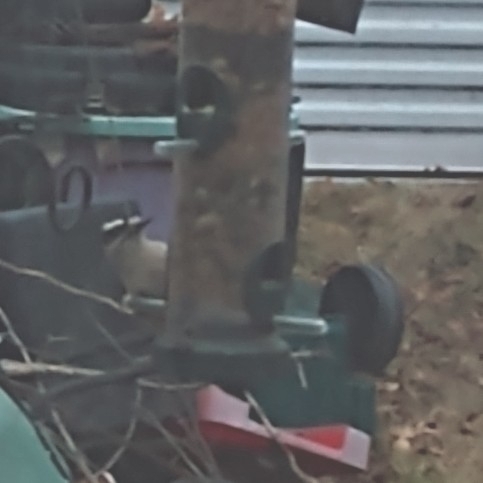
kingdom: Animalia
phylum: Chordata
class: Aves
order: Piciformes
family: Picidae
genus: Dryobates
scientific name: Dryobates pubescens
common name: Downy woodpecker
